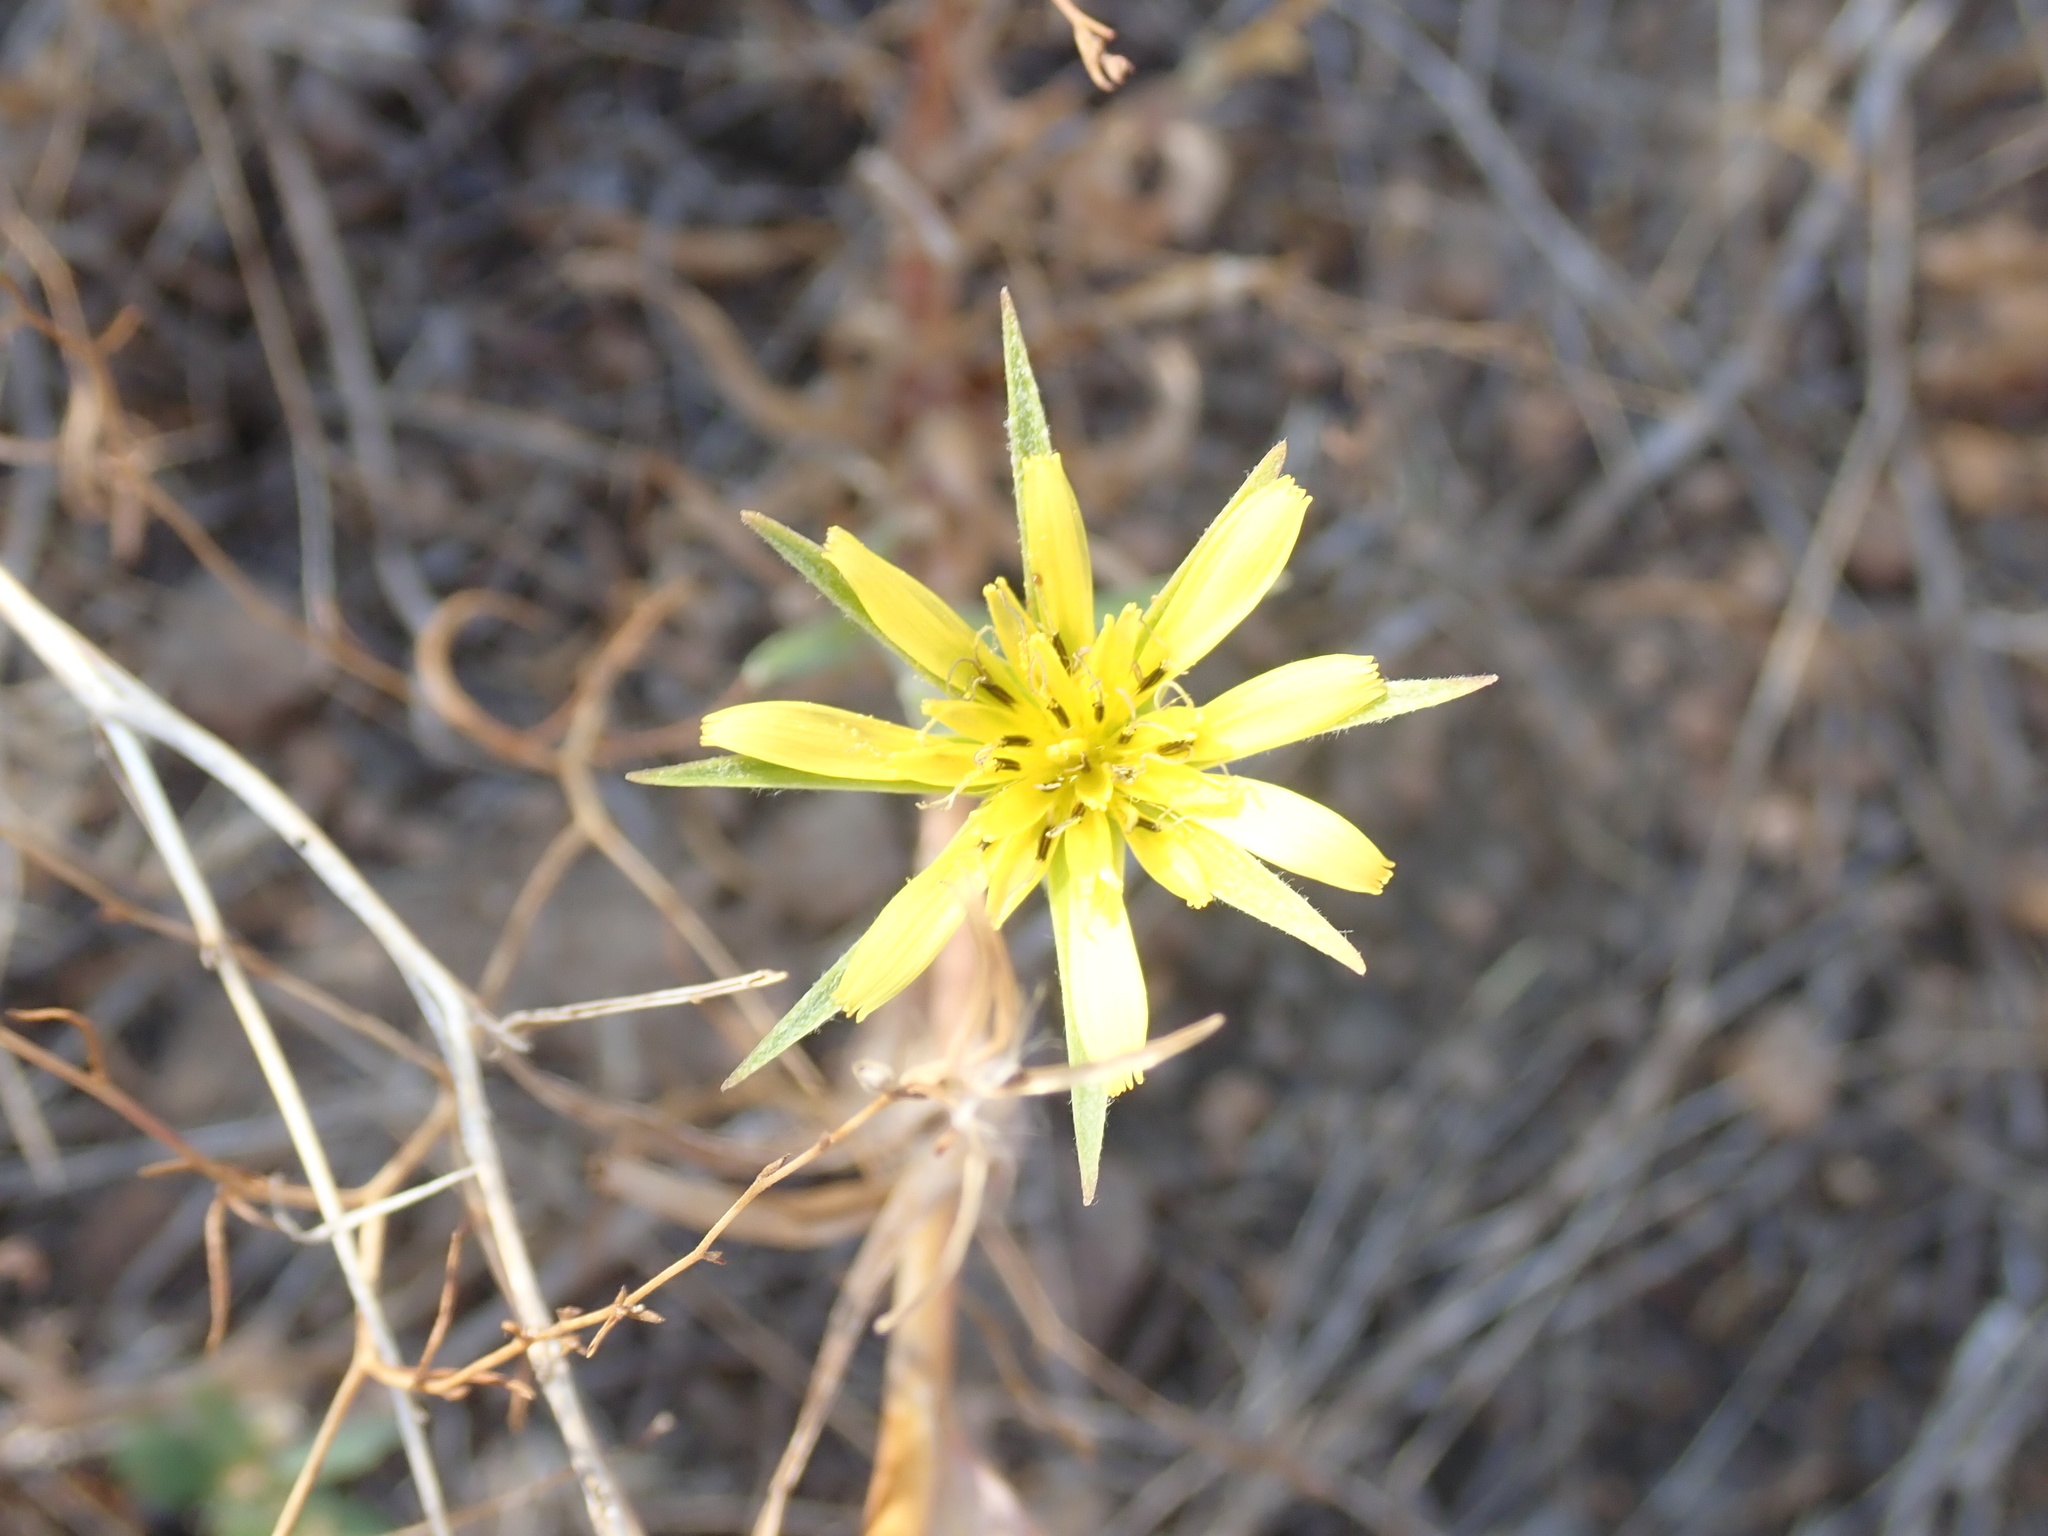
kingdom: Plantae
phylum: Tracheophyta
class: Magnoliopsida
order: Asterales
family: Asteraceae
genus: Tragopogon
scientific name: Tragopogon dubius
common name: Yellow salsify
